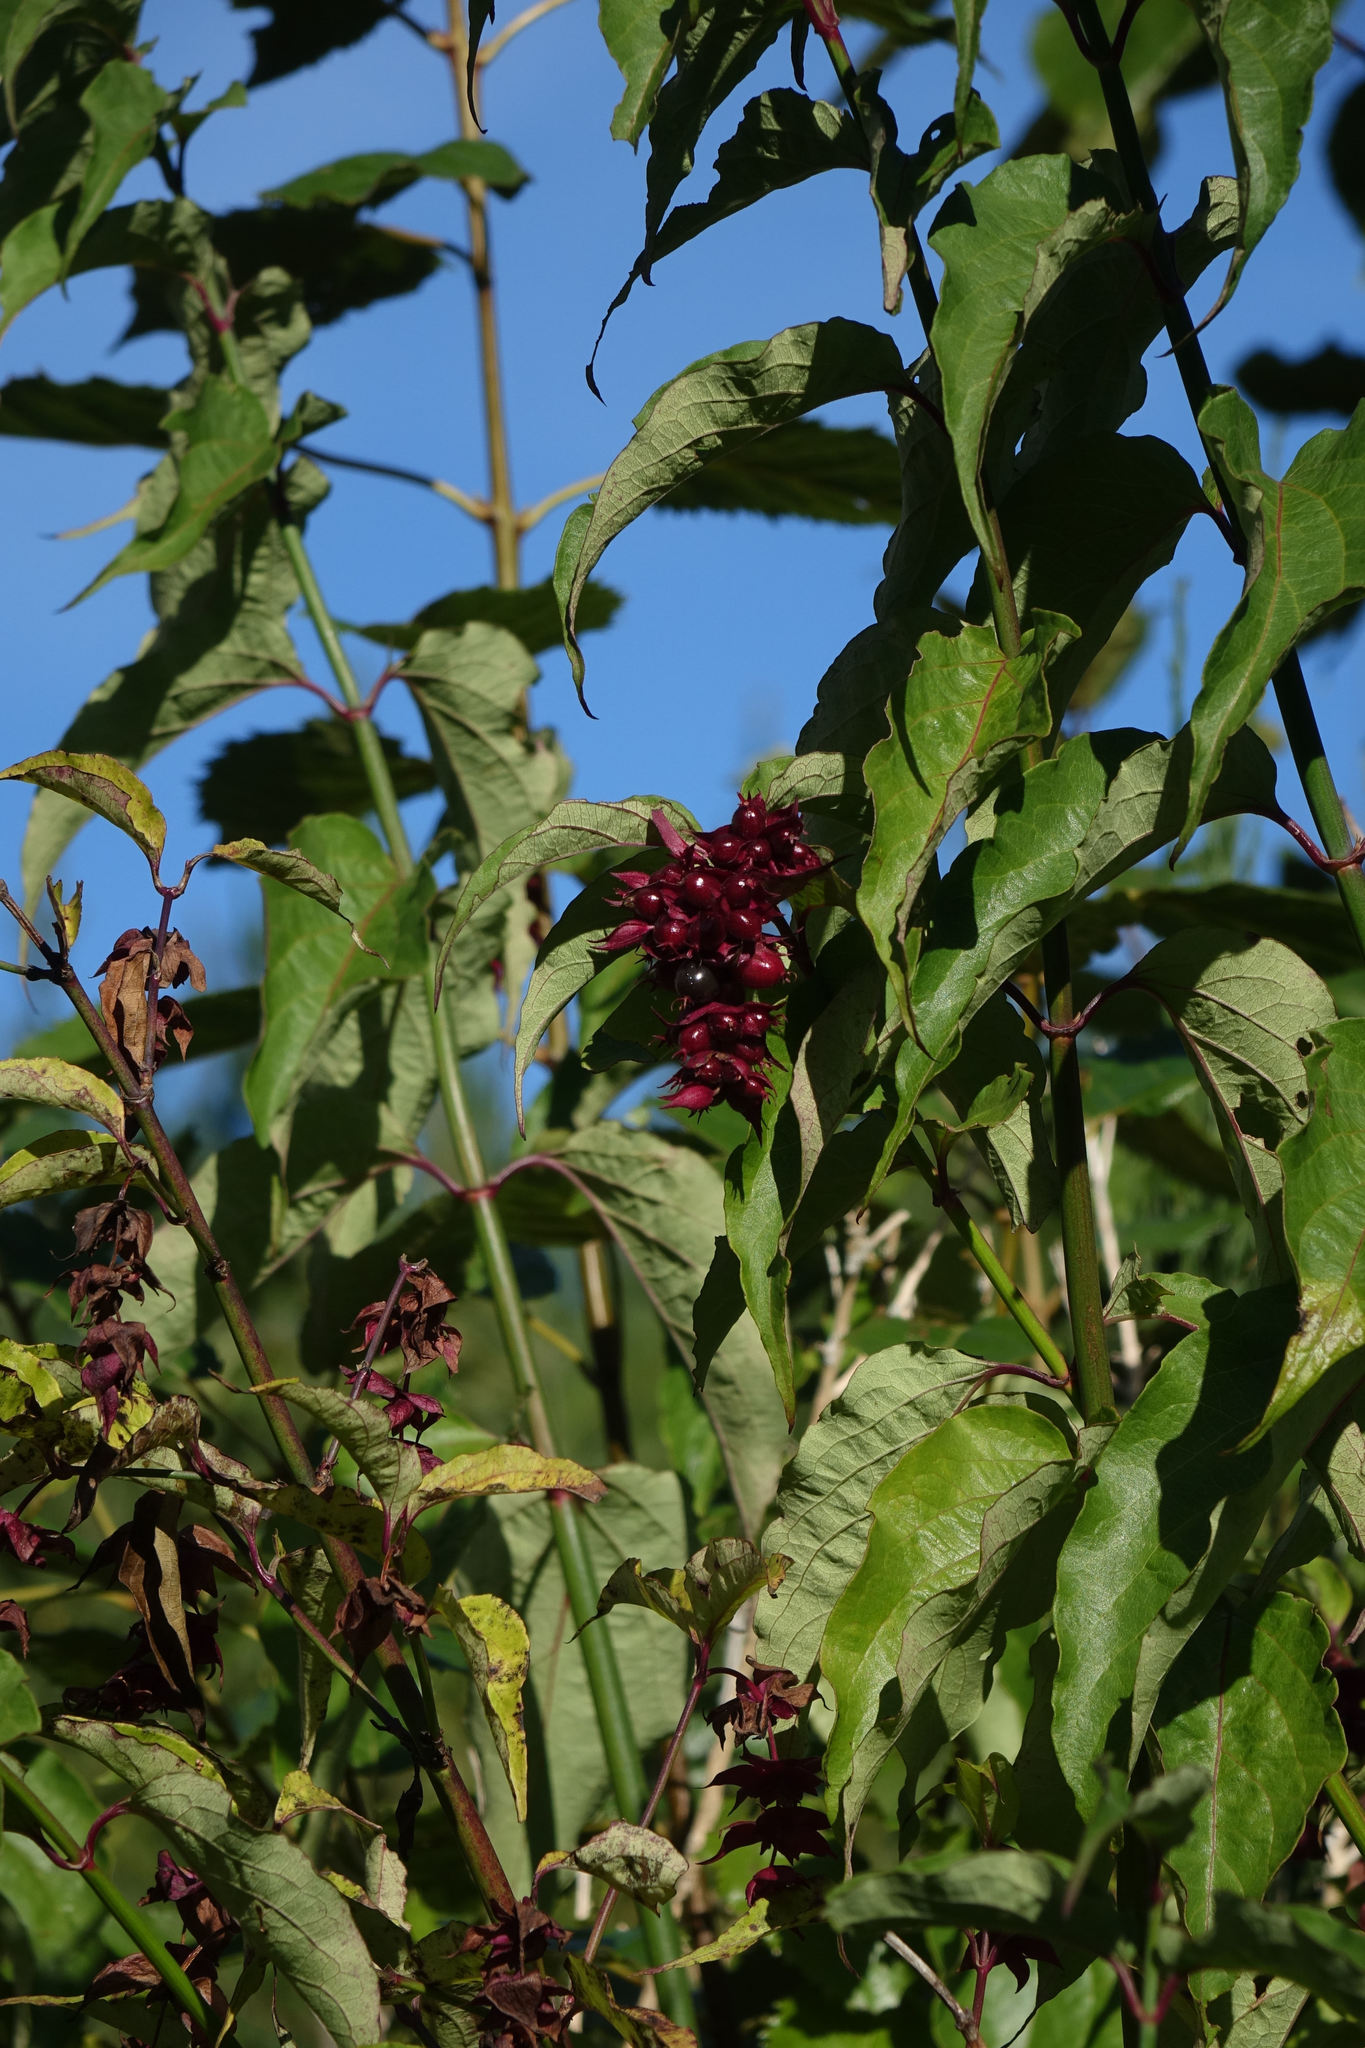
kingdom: Plantae
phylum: Tracheophyta
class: Magnoliopsida
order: Dipsacales
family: Caprifoliaceae
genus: Leycesteria
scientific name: Leycesteria formosa
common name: Himalayan honeysuckle
